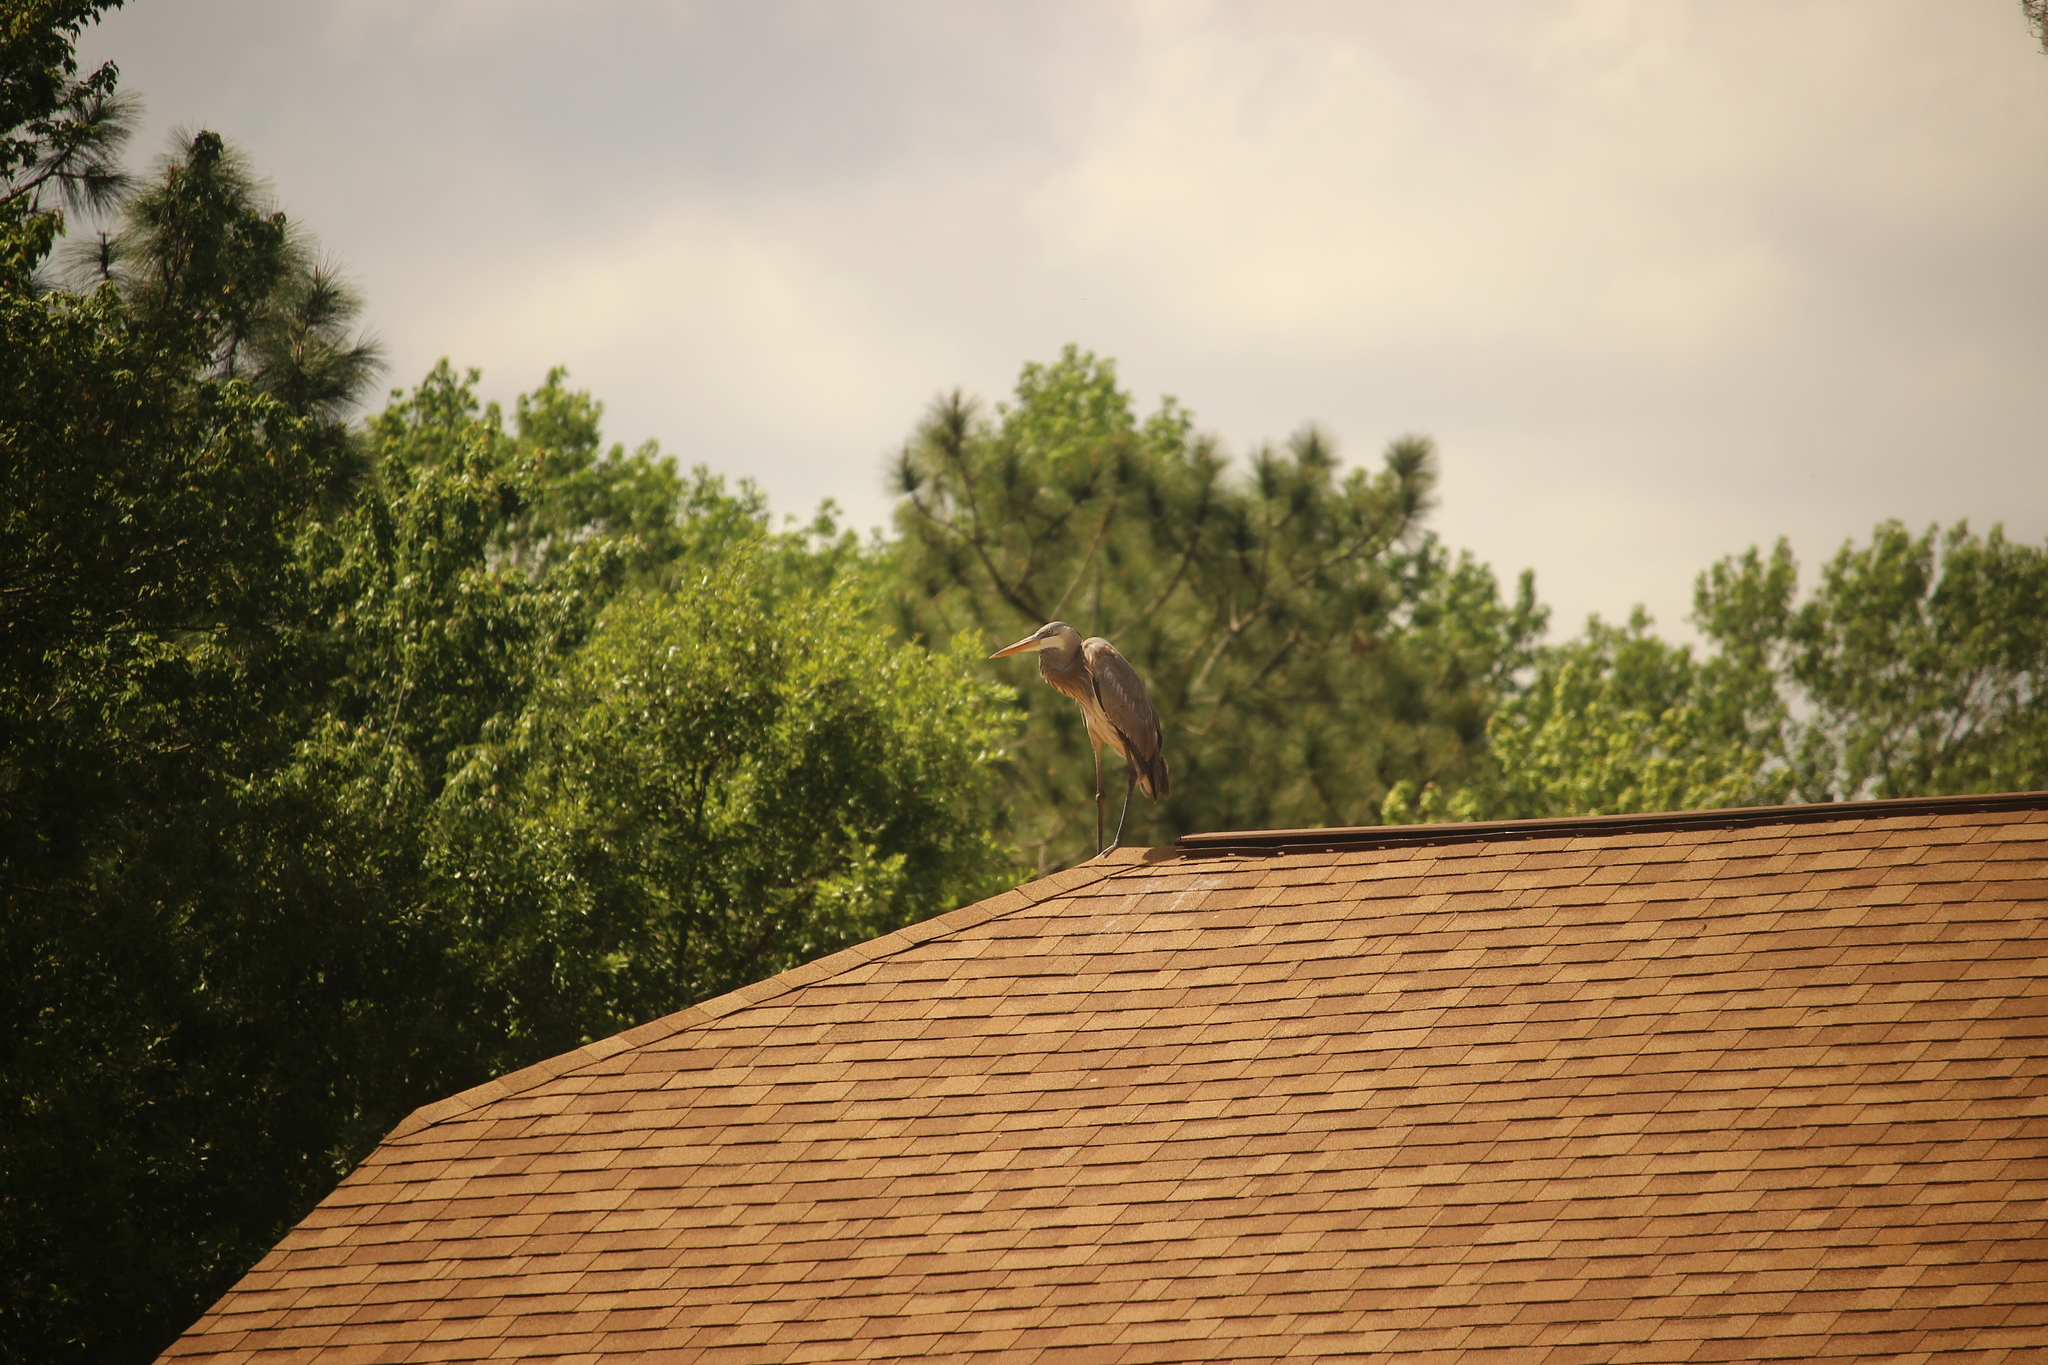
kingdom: Animalia
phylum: Chordata
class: Aves
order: Pelecaniformes
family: Ardeidae
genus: Ardea
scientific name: Ardea herodias
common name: Great blue heron
